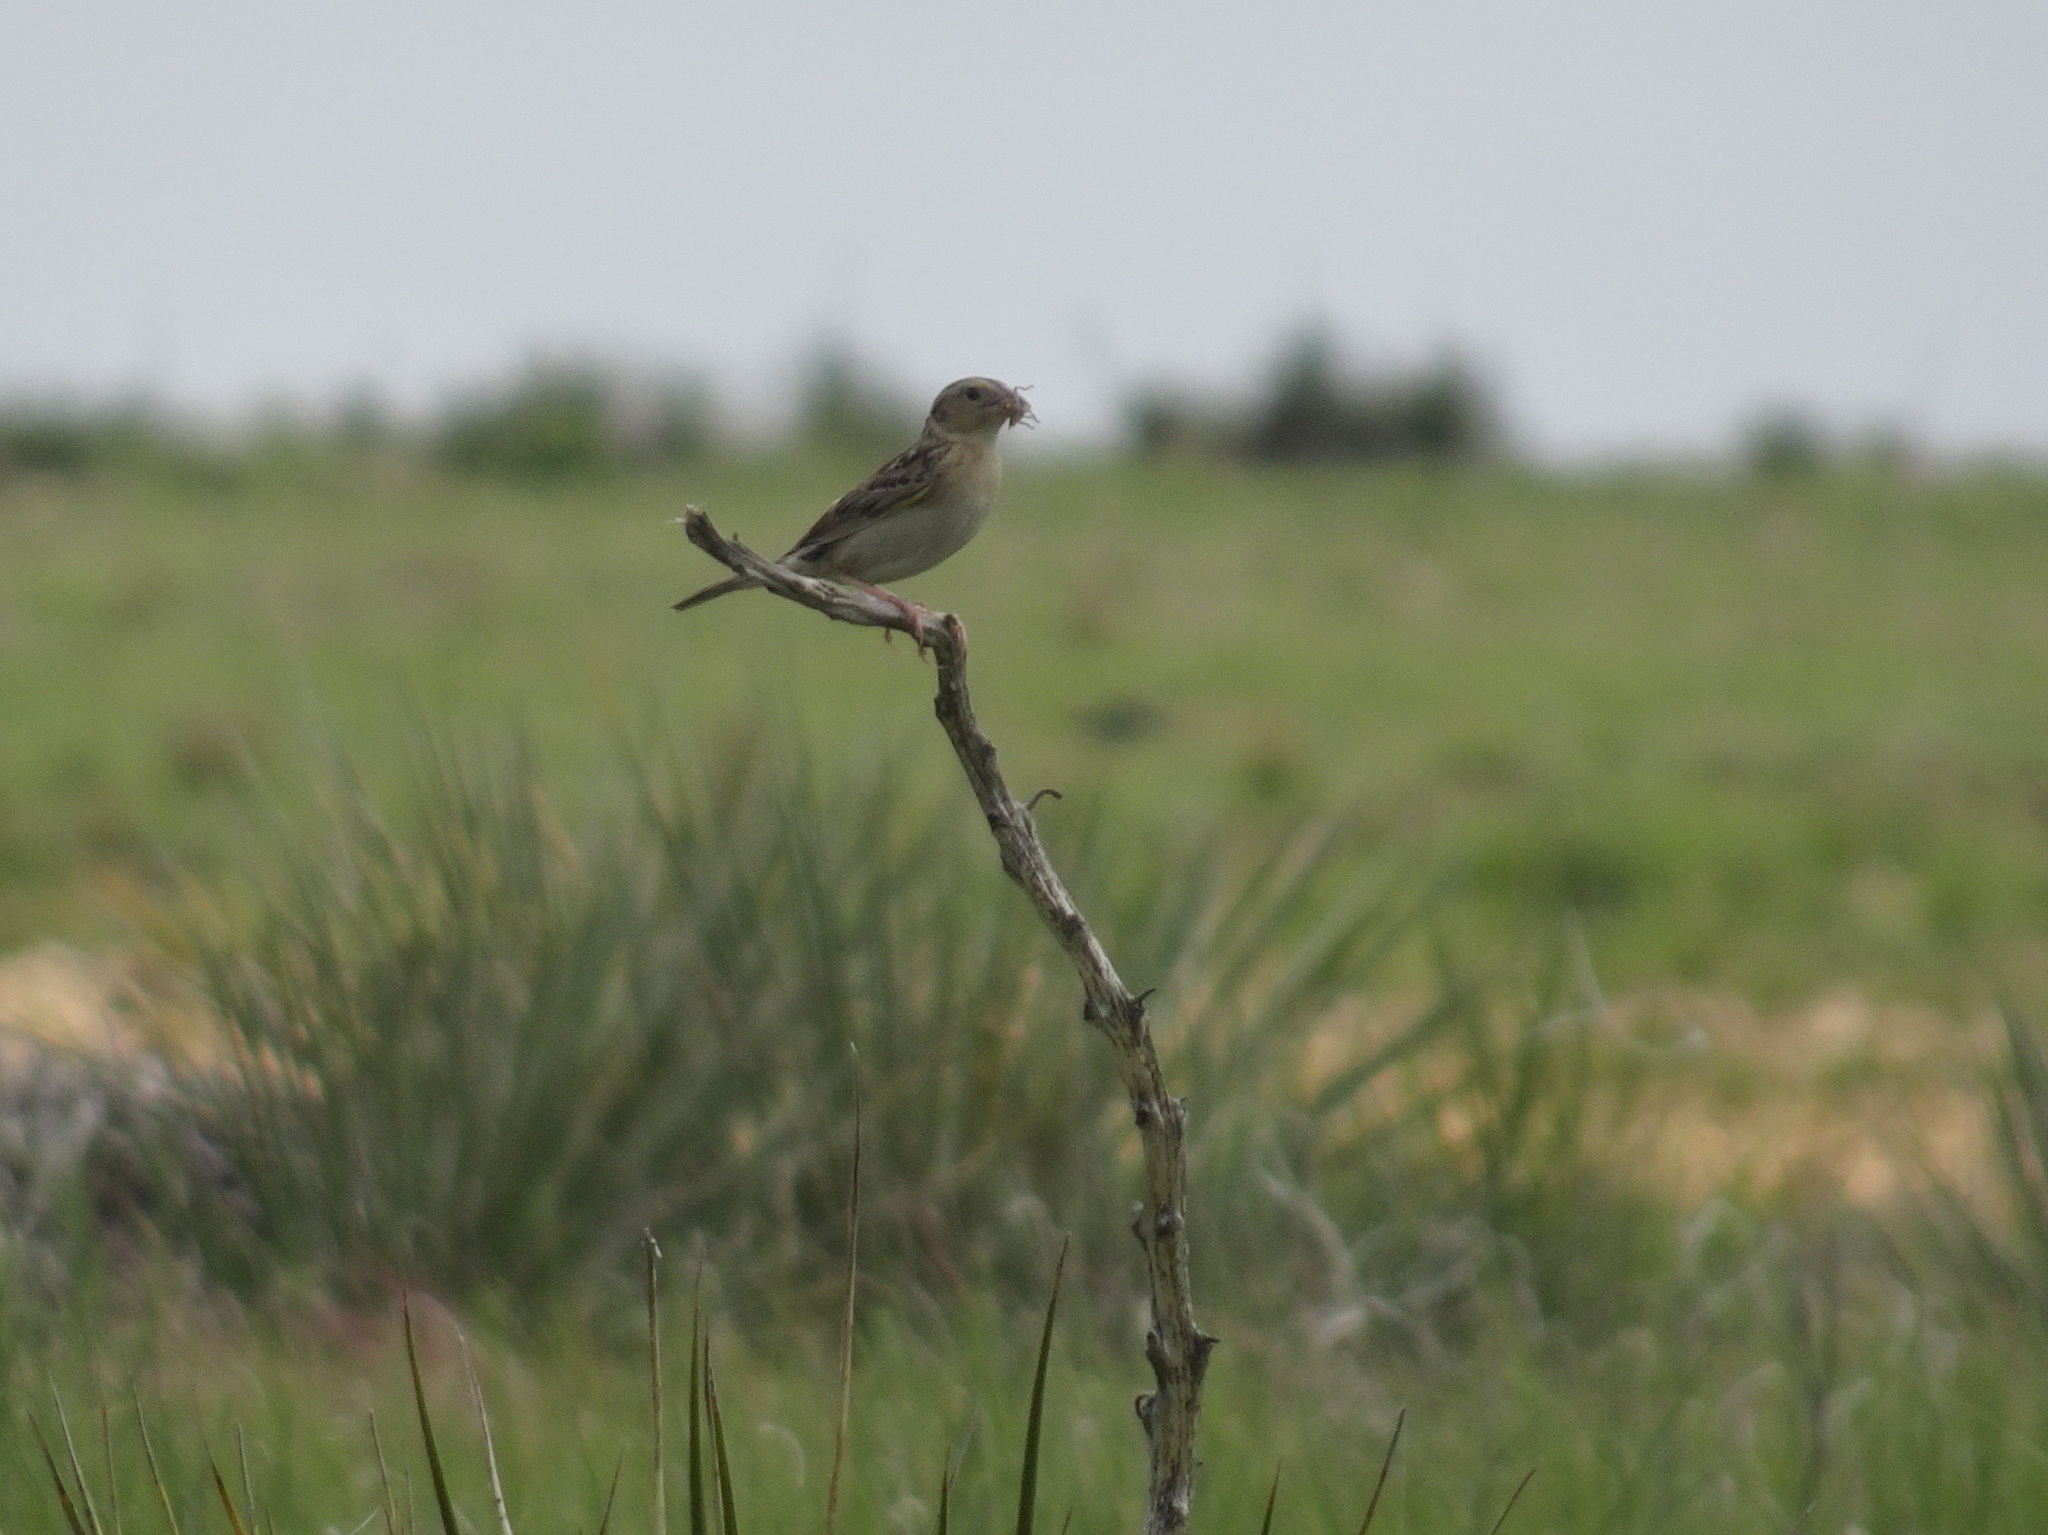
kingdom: Animalia
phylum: Chordata
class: Aves
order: Passeriformes
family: Passerellidae
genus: Ammodramus
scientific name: Ammodramus savannarum
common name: Grasshopper sparrow
